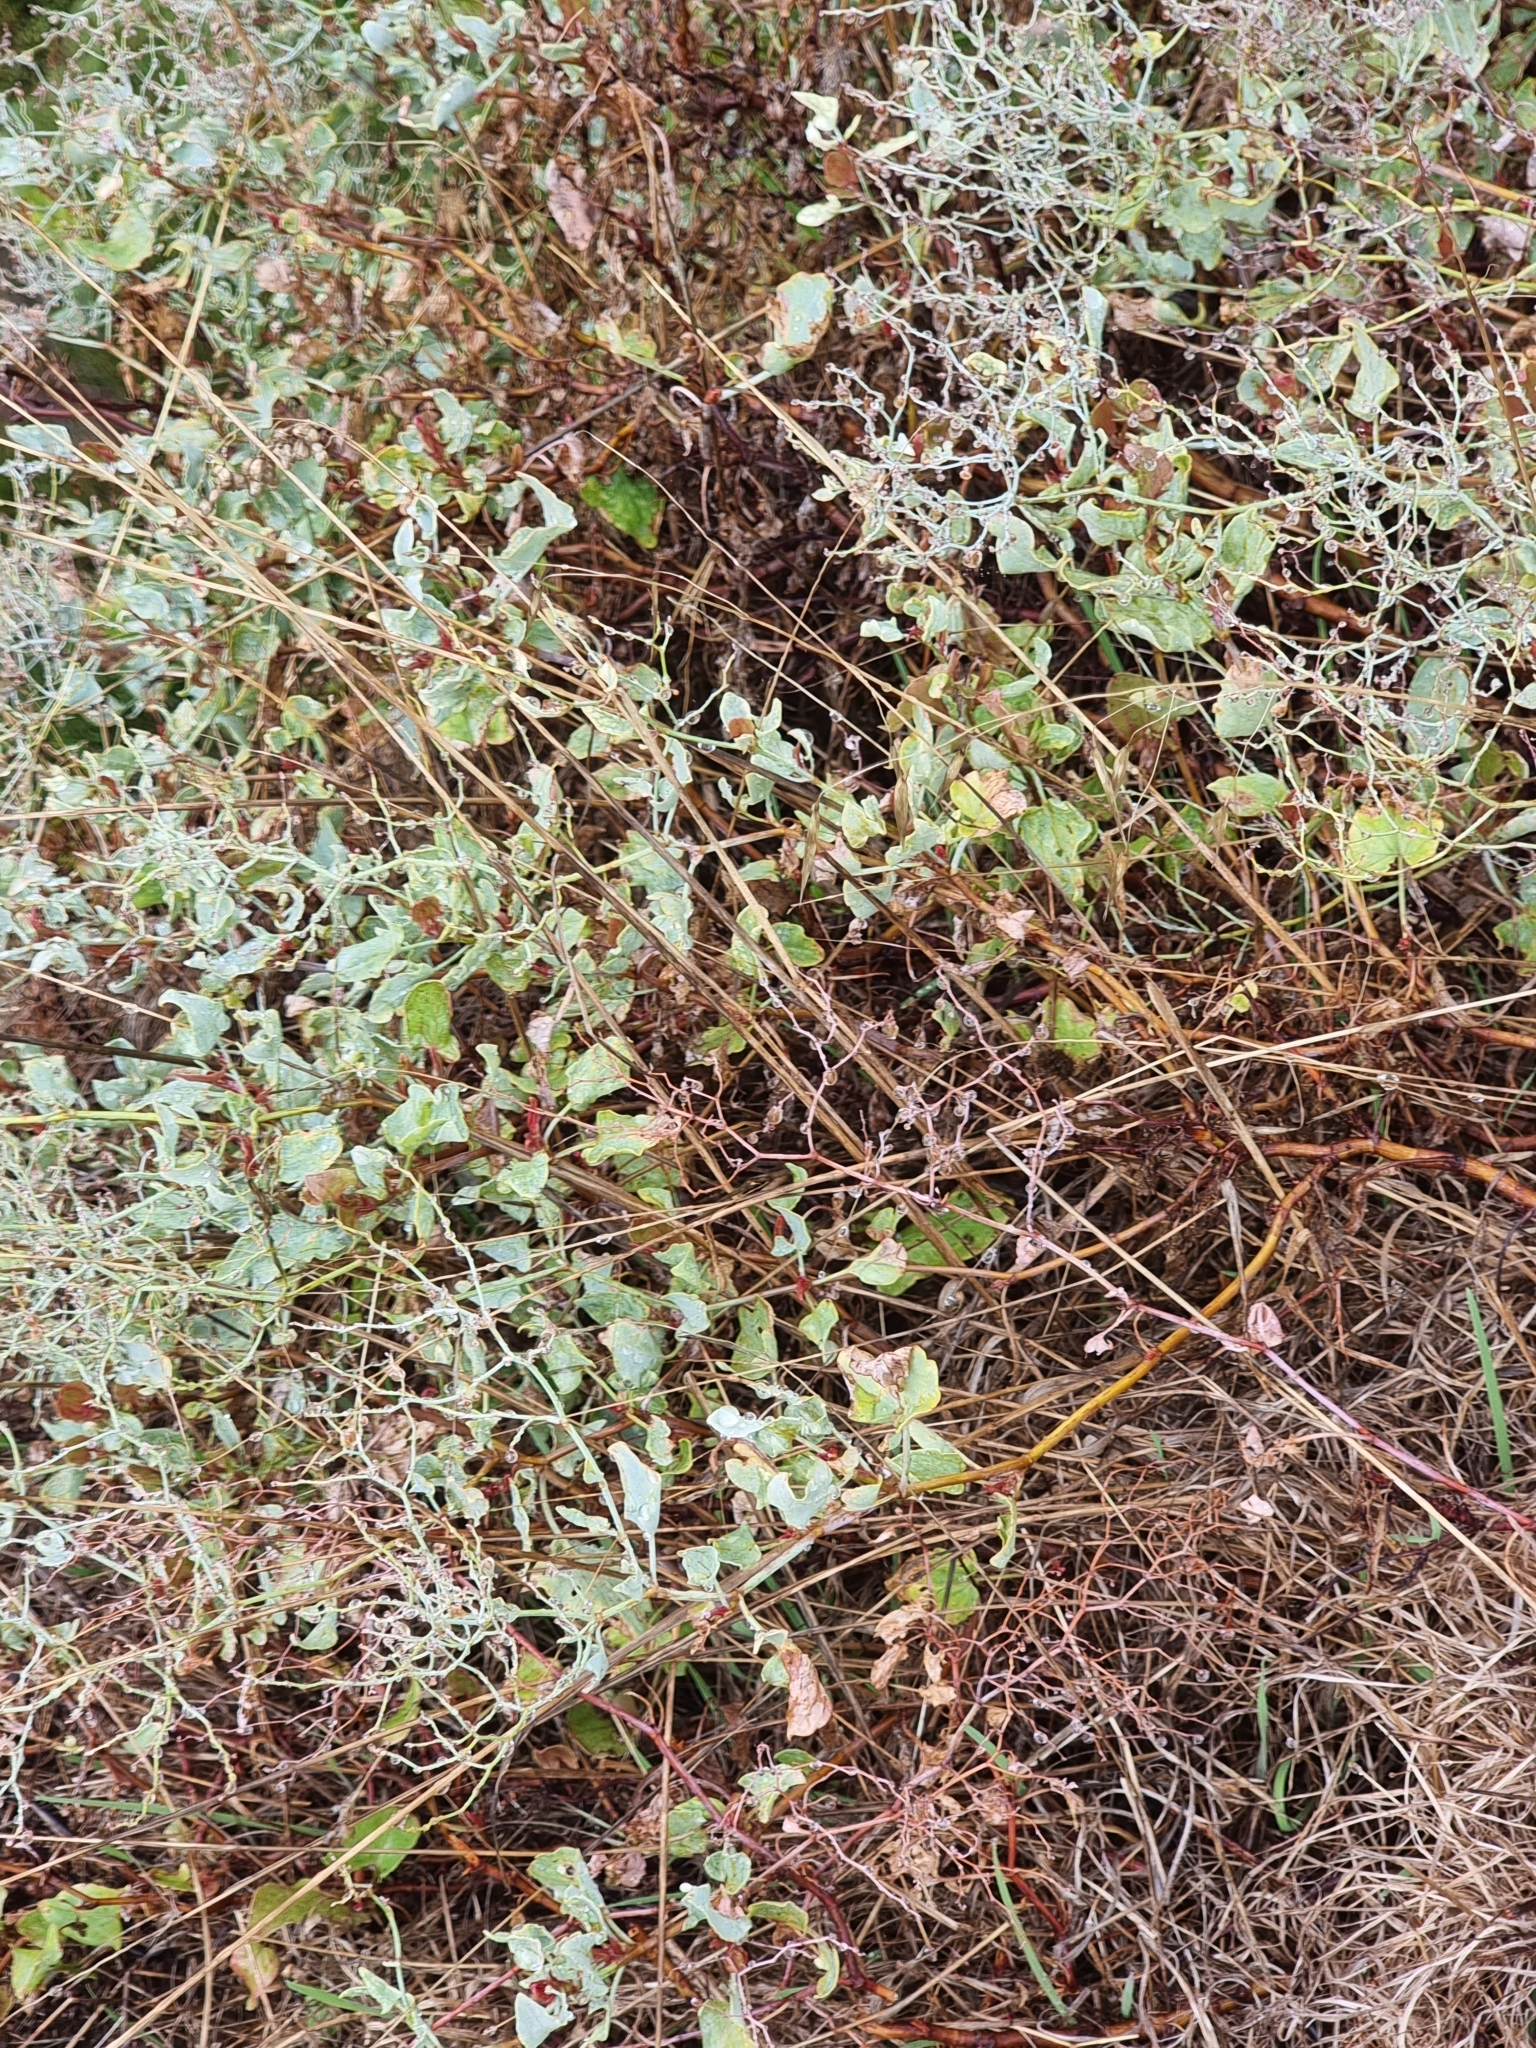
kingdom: Plantae
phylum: Tracheophyta
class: Magnoliopsida
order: Caryophyllales
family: Polygonaceae
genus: Rumex
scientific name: Rumex maderensis
